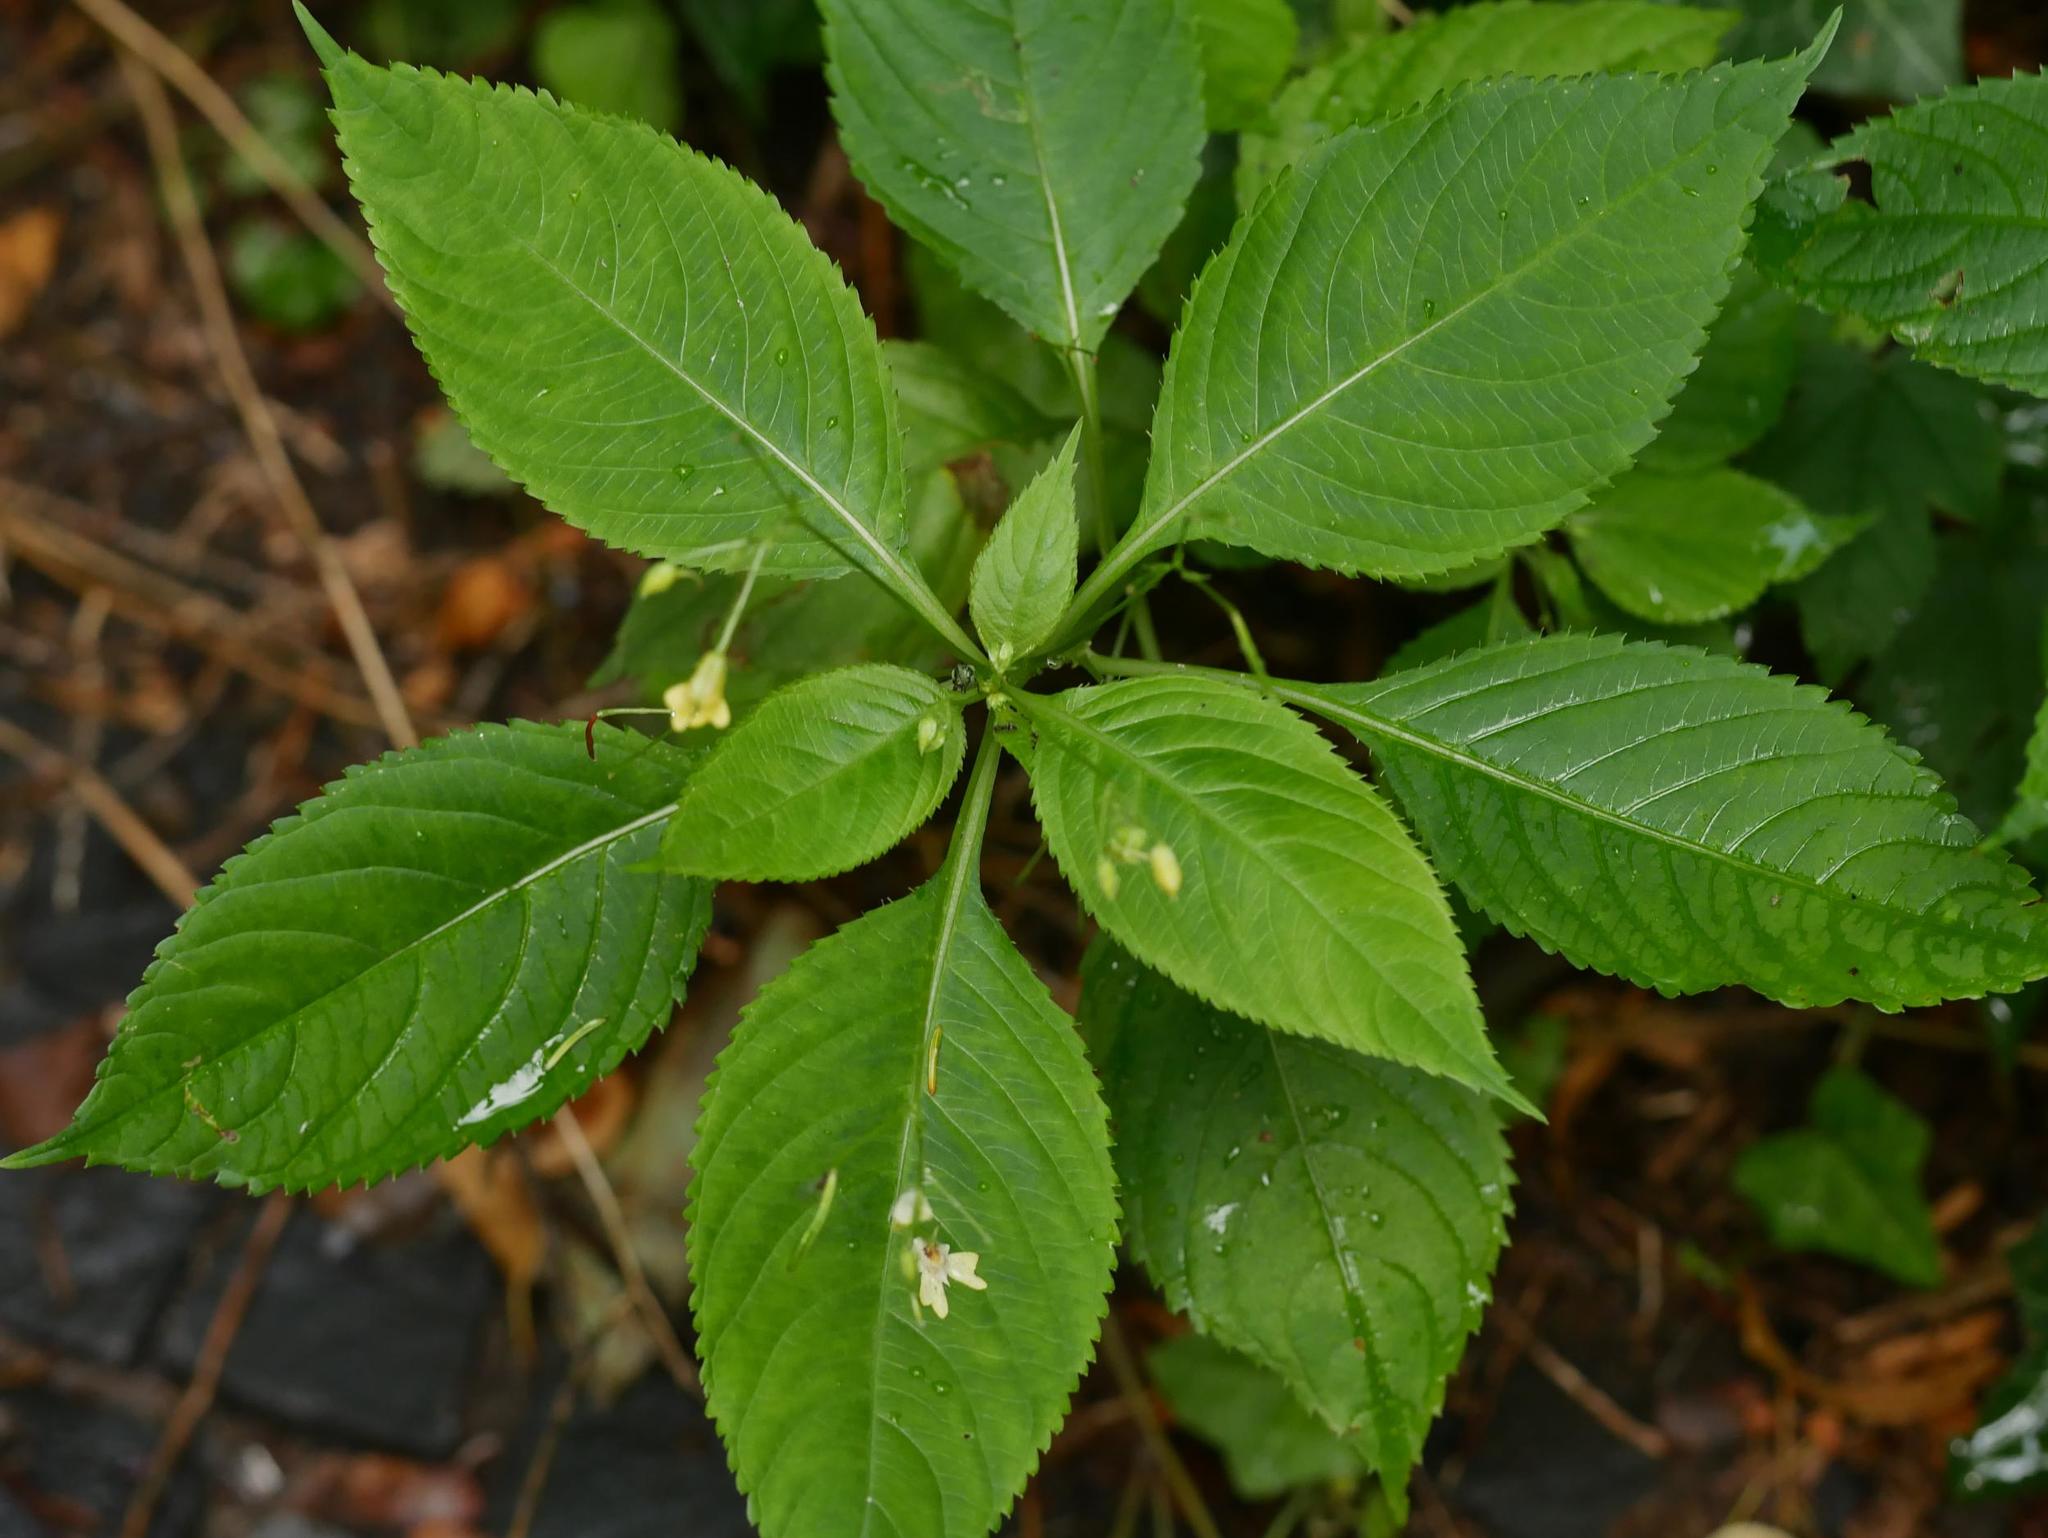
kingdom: Plantae
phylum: Tracheophyta
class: Magnoliopsida
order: Ericales
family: Balsaminaceae
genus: Impatiens
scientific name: Impatiens parviflora
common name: Small balsam
